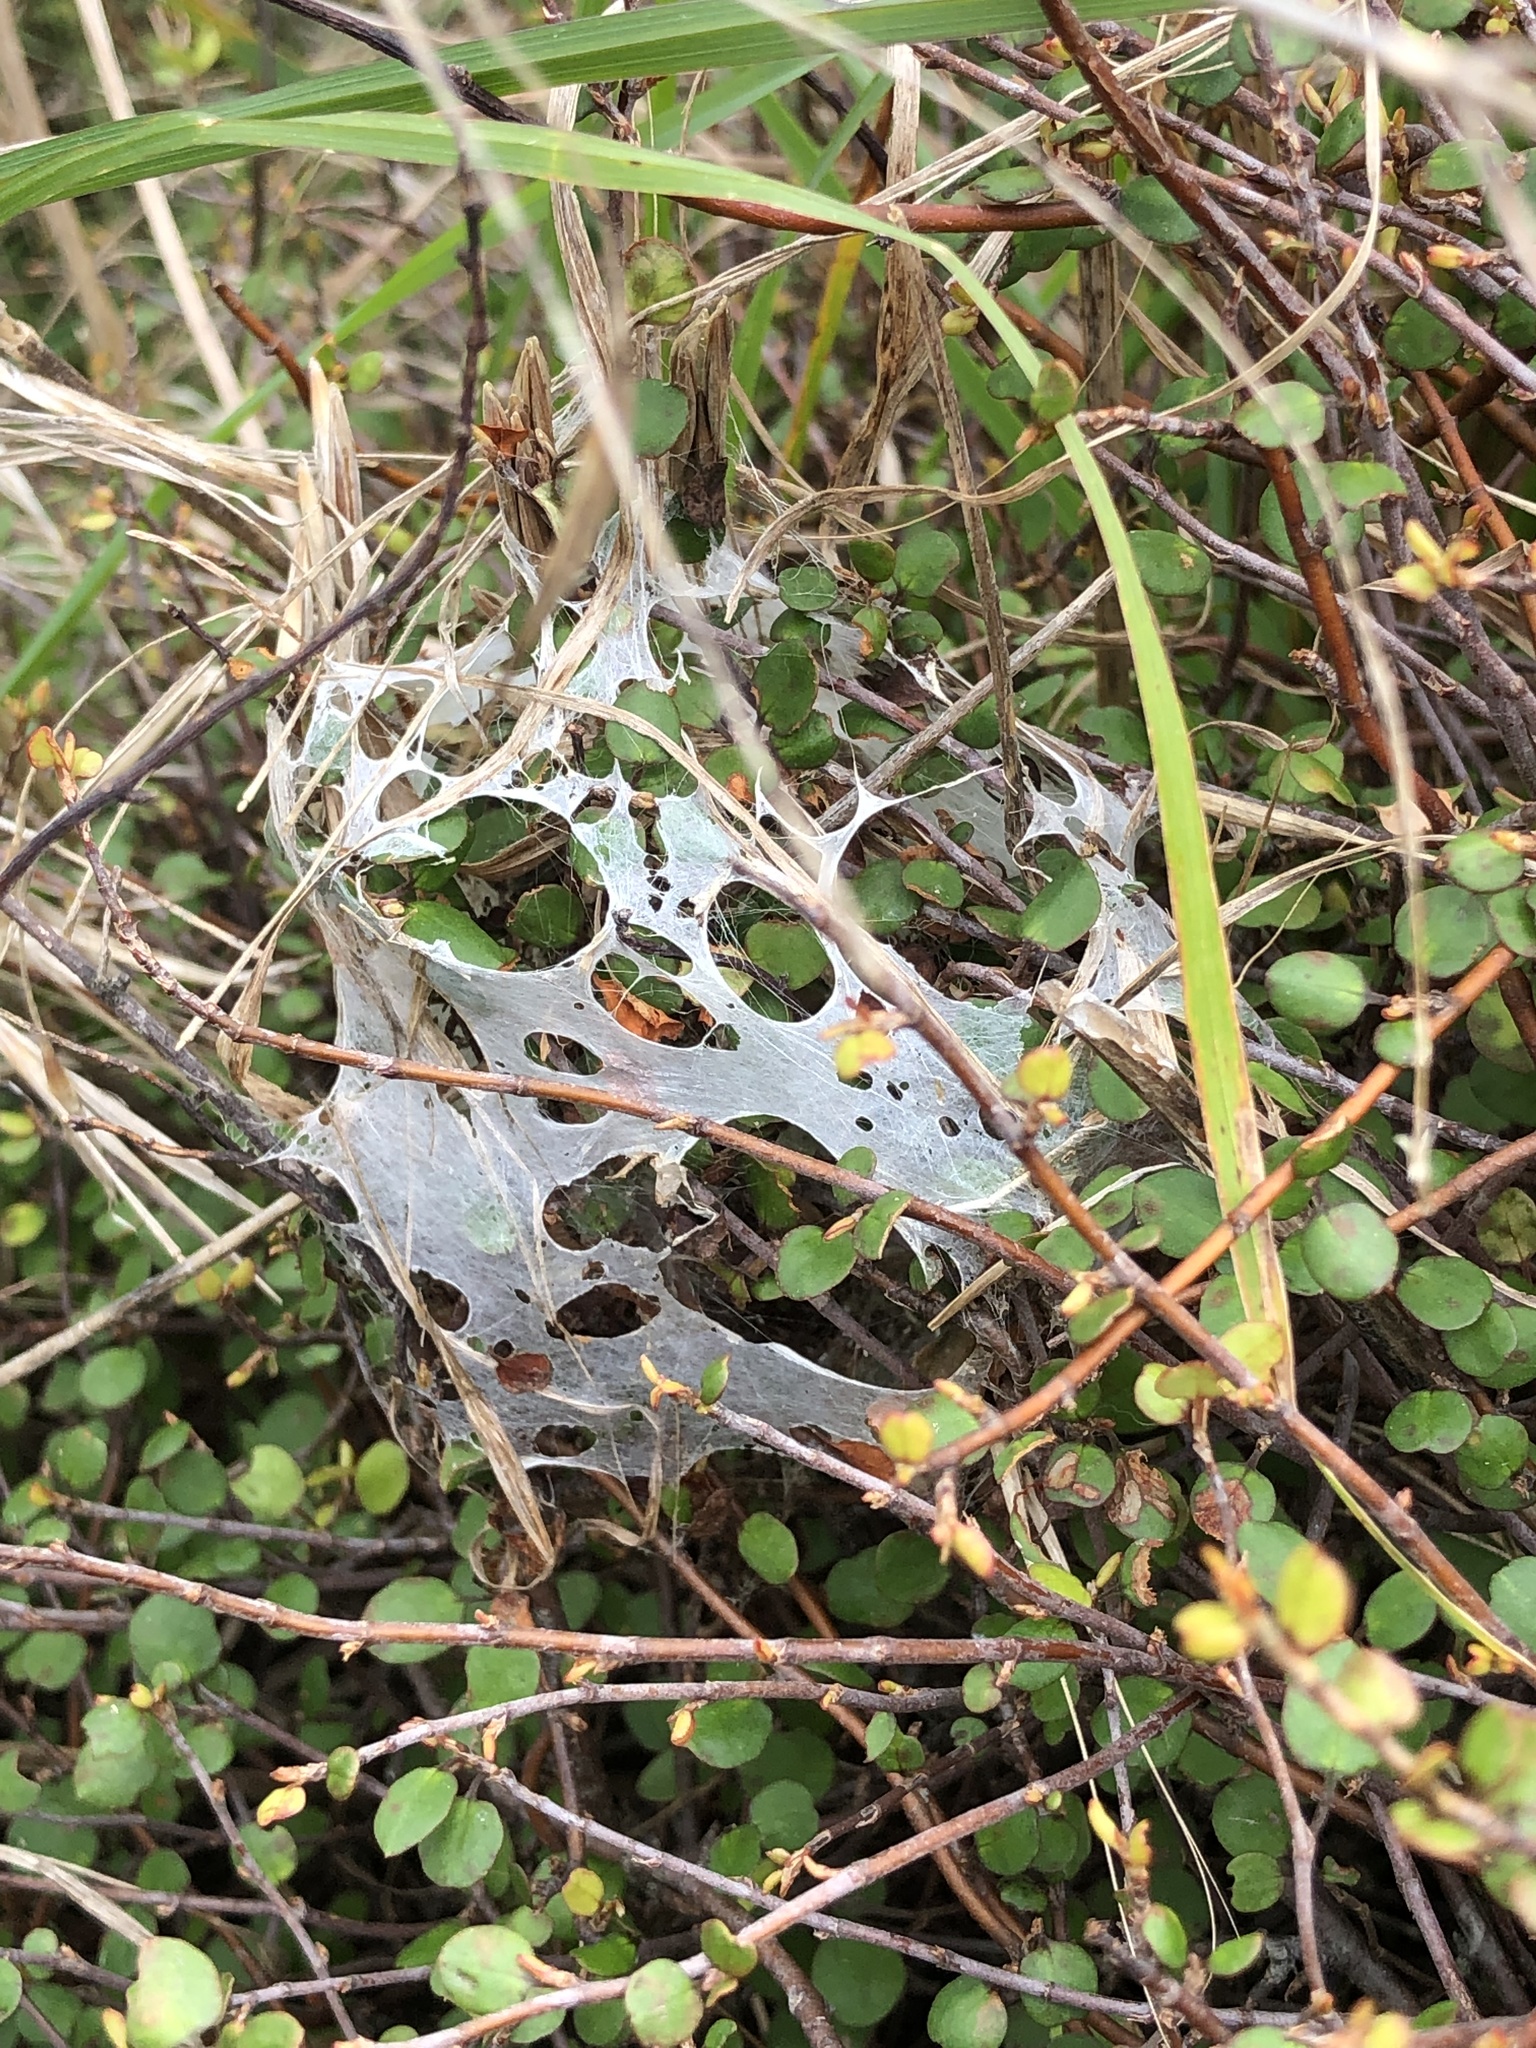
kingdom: Animalia
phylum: Arthropoda
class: Arachnida
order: Araneae
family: Pisauridae
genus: Dolomedes
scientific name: Dolomedes minor
